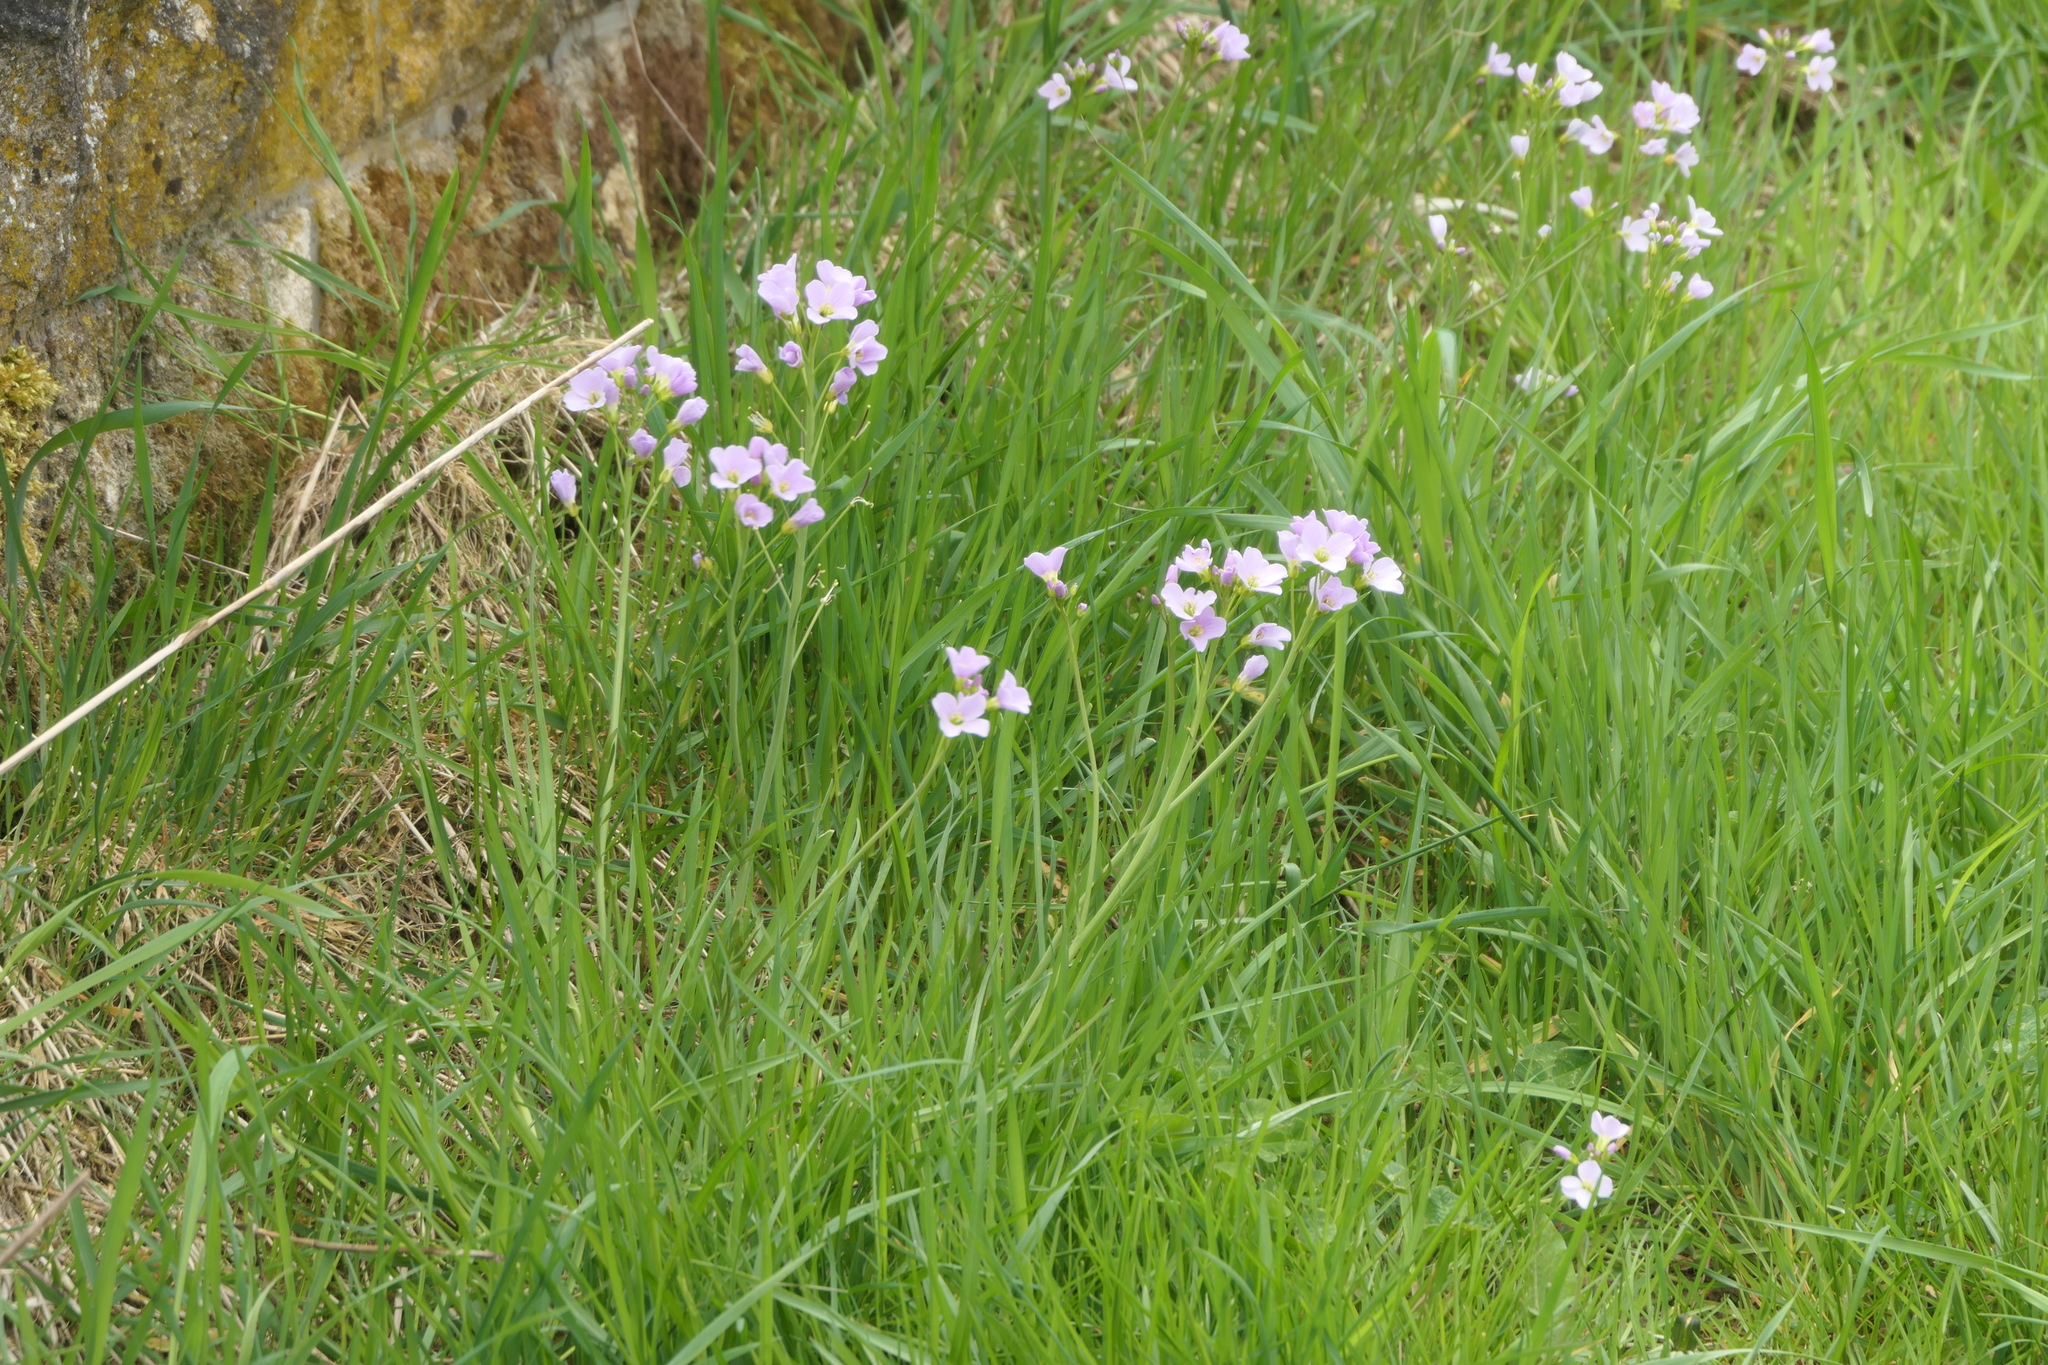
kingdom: Plantae
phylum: Tracheophyta
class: Magnoliopsida
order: Brassicales
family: Brassicaceae
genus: Cardamine
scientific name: Cardamine pratensis
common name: Cuckoo flower
